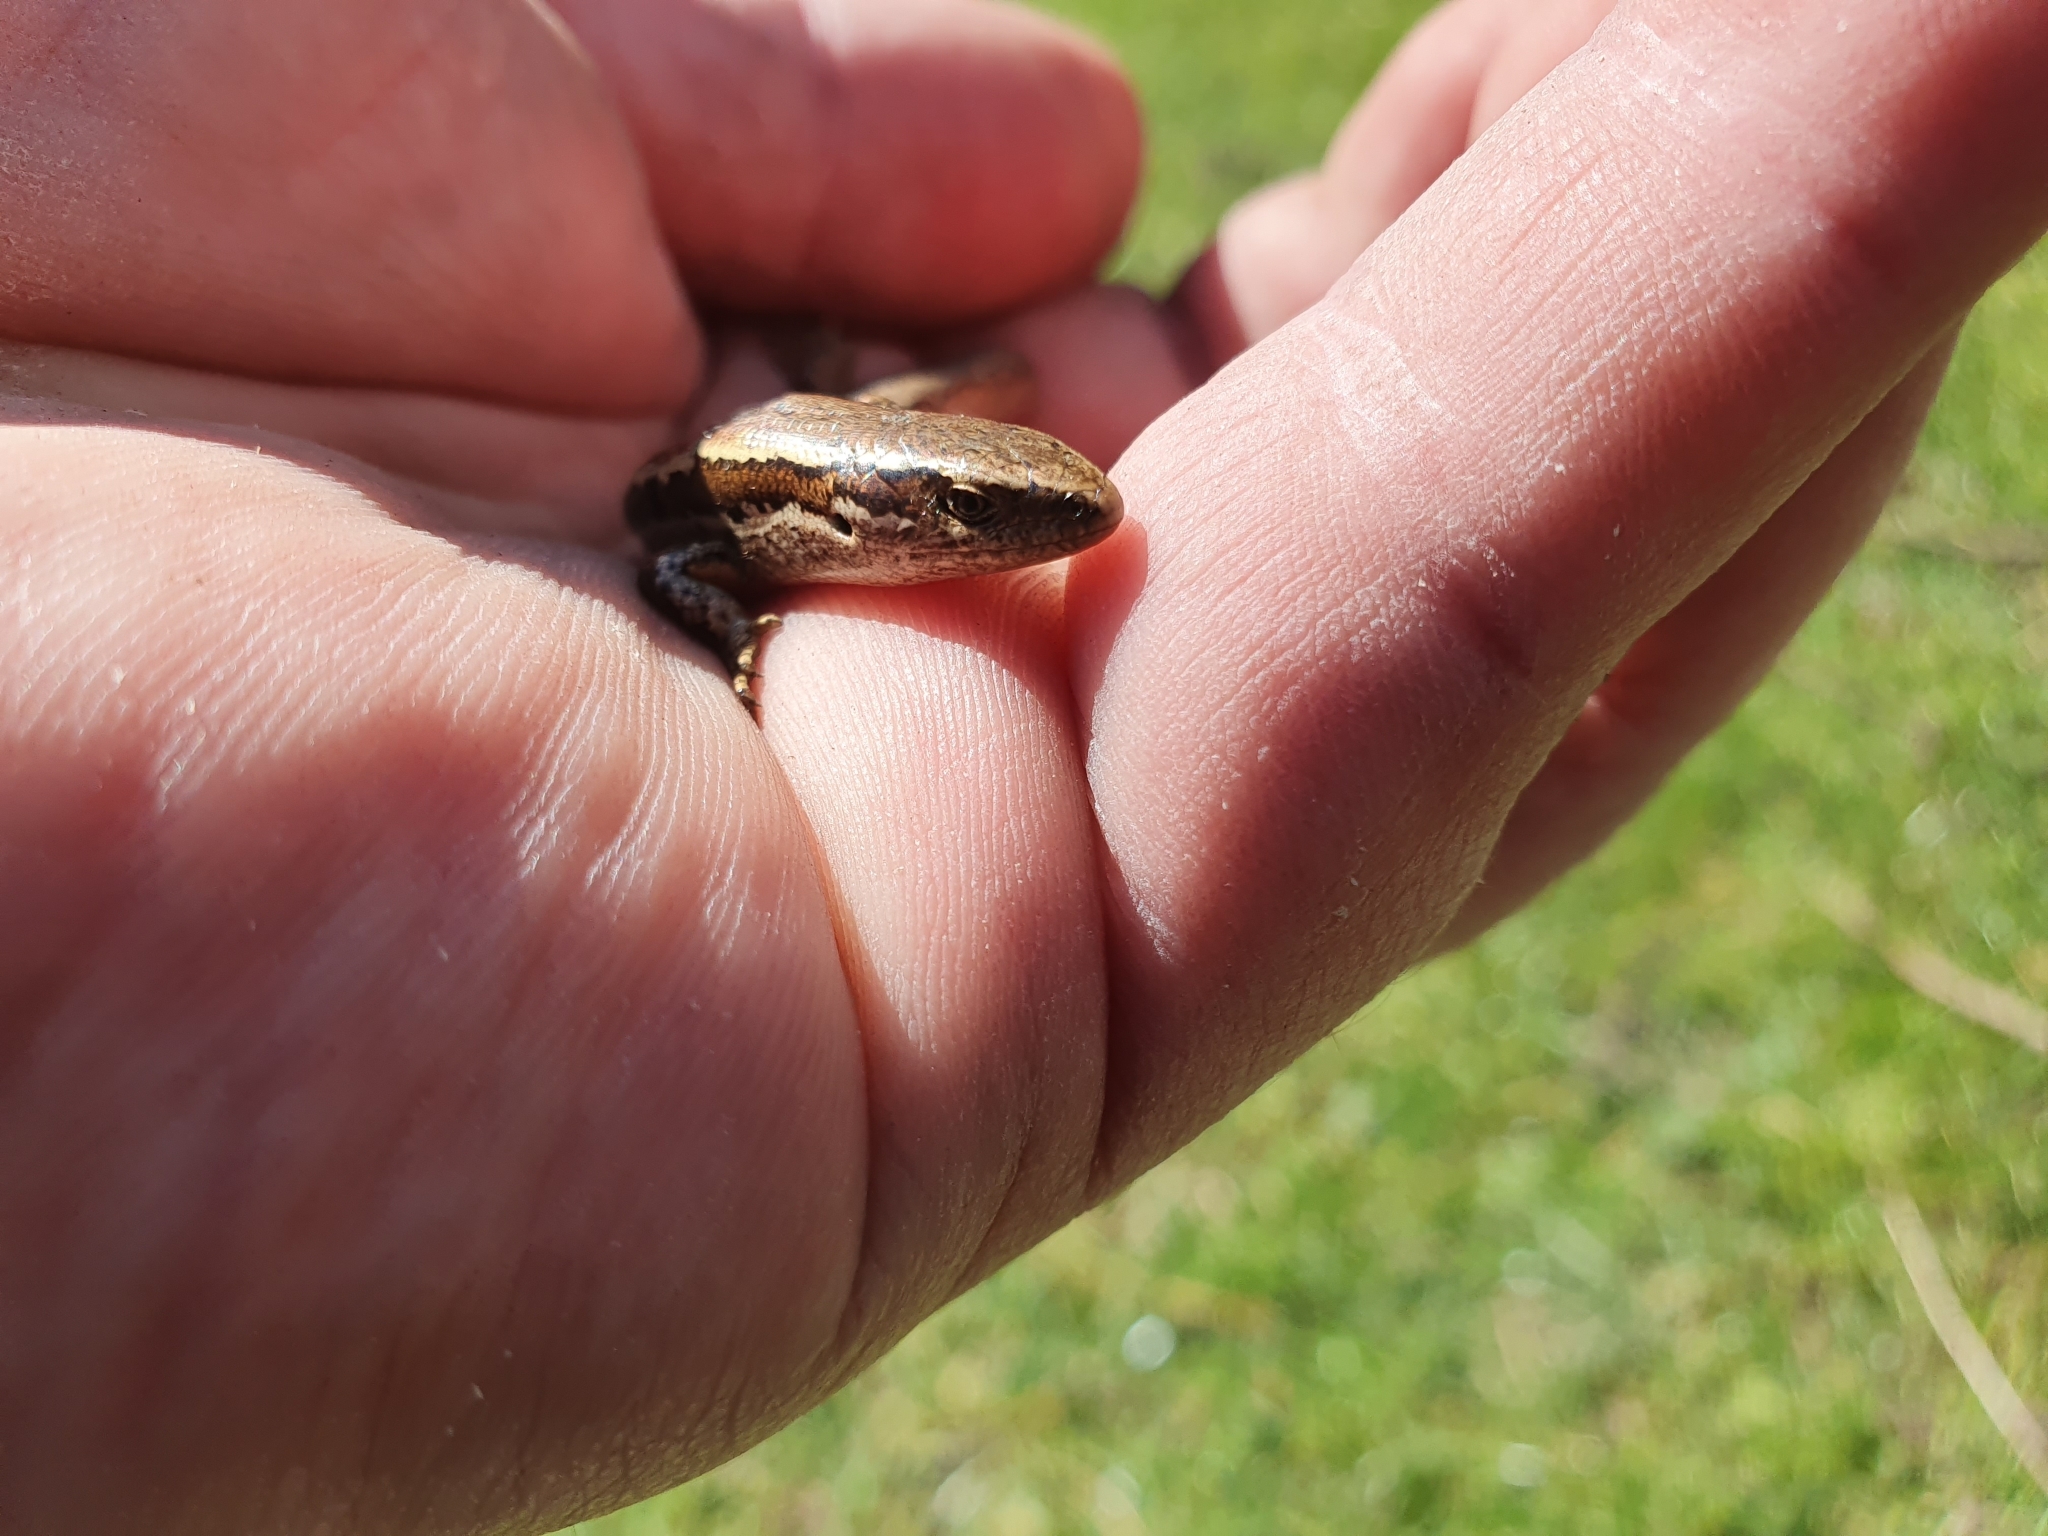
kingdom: Animalia
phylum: Chordata
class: Squamata
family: Scincidae
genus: Oligosoma
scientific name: Oligosoma polychroma
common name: Common new zealand skink
